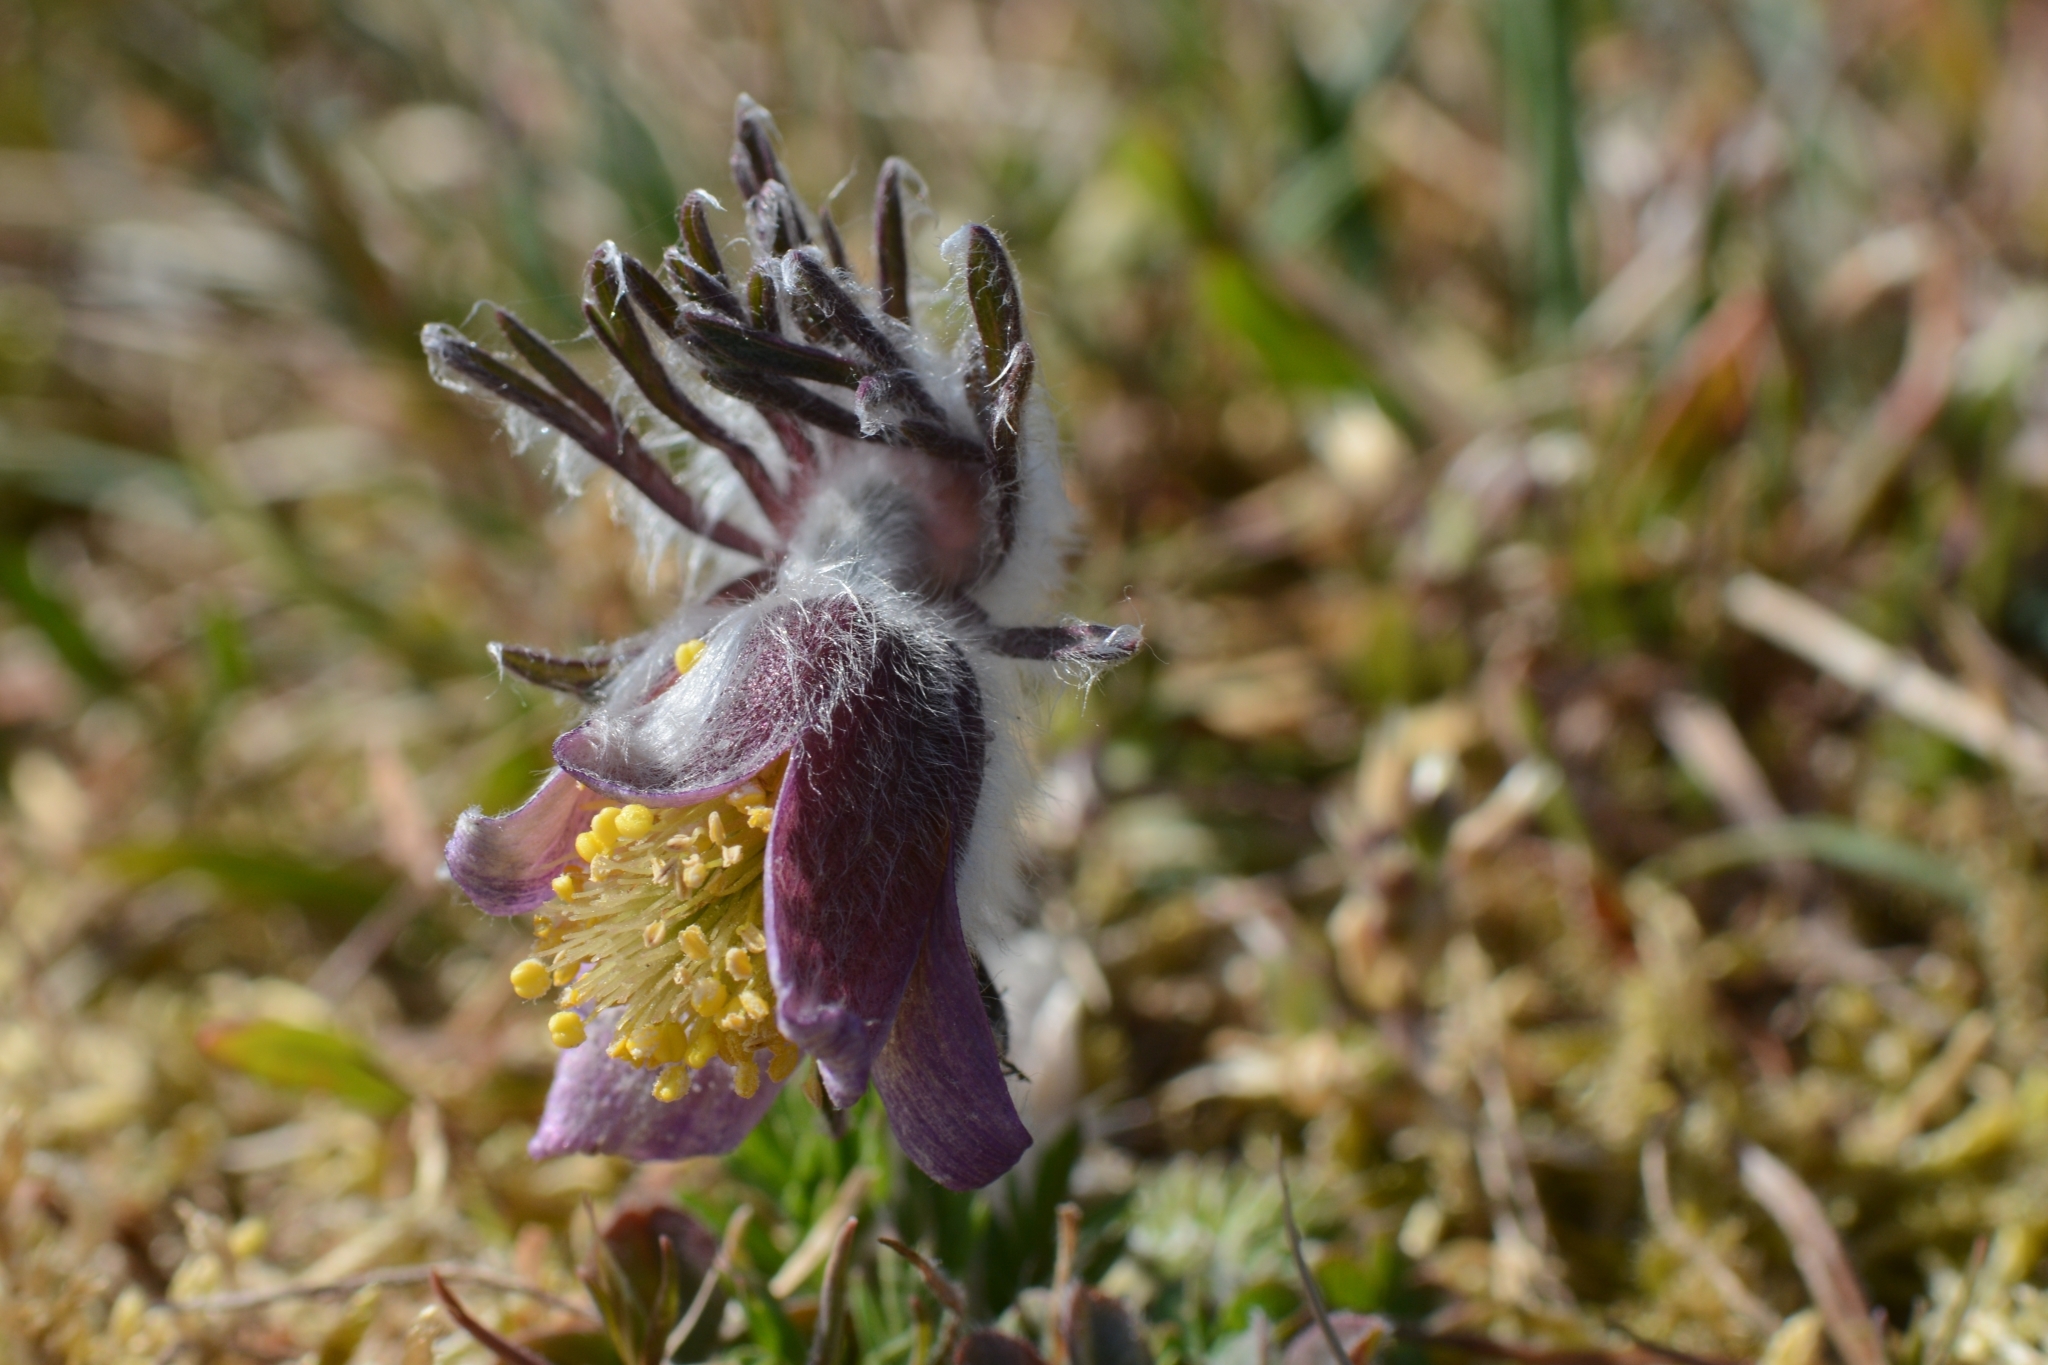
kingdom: Plantae
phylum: Tracheophyta
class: Magnoliopsida
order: Ranunculales
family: Ranunculaceae
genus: Pulsatilla
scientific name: Pulsatilla pratensis
